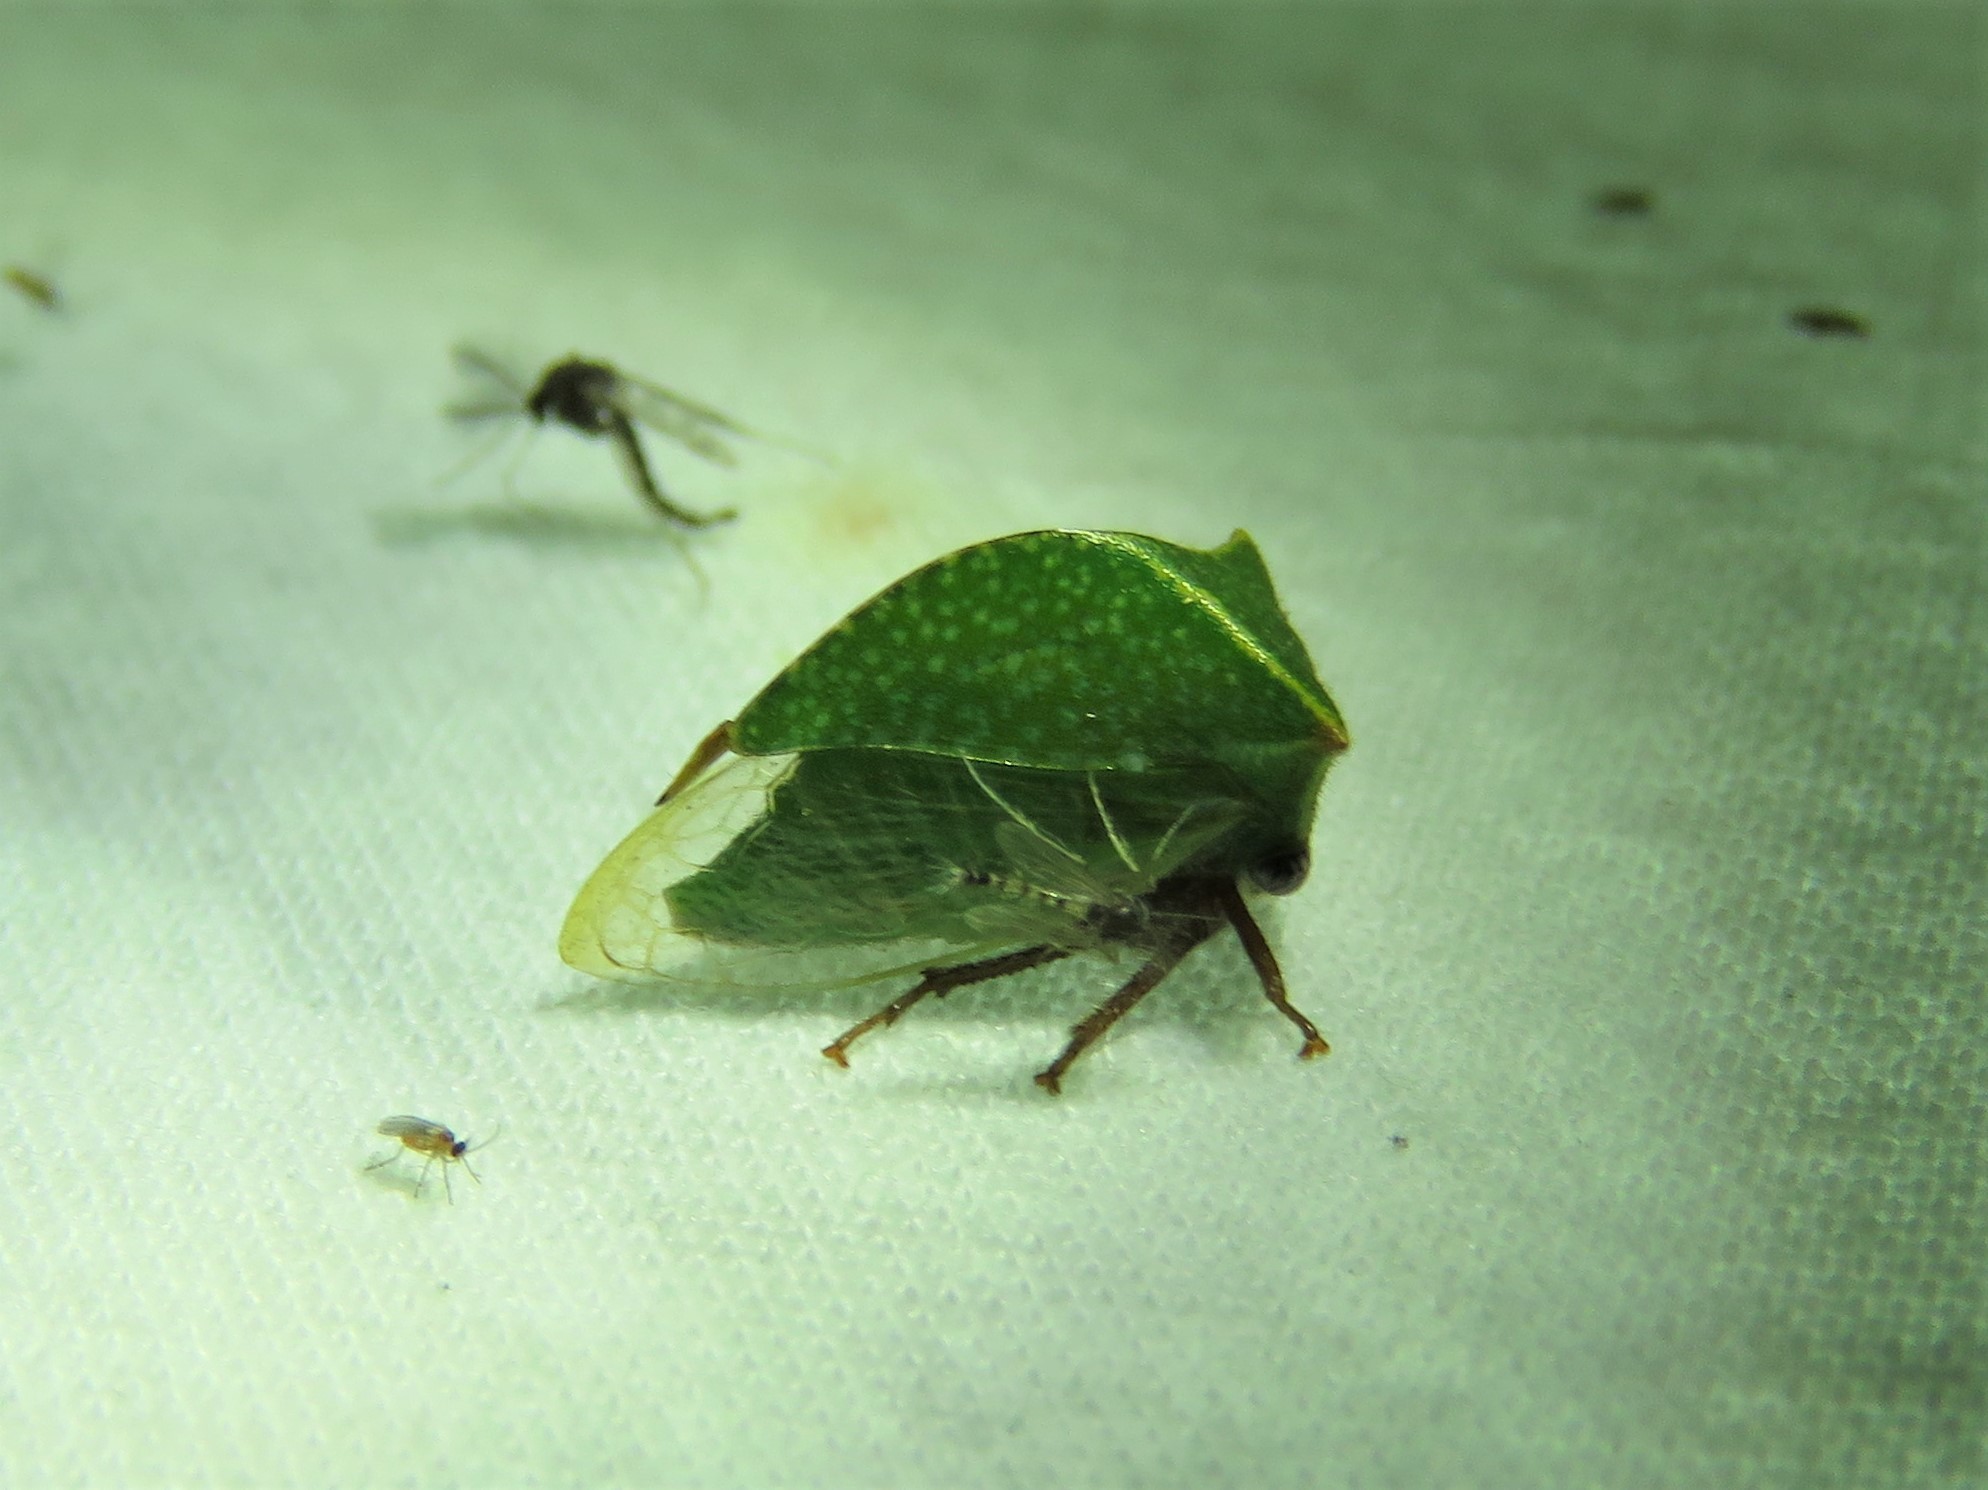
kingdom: Animalia
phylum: Arthropoda
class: Insecta
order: Hemiptera
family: Membracidae
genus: Tortistilus
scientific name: Tortistilus abnorma
